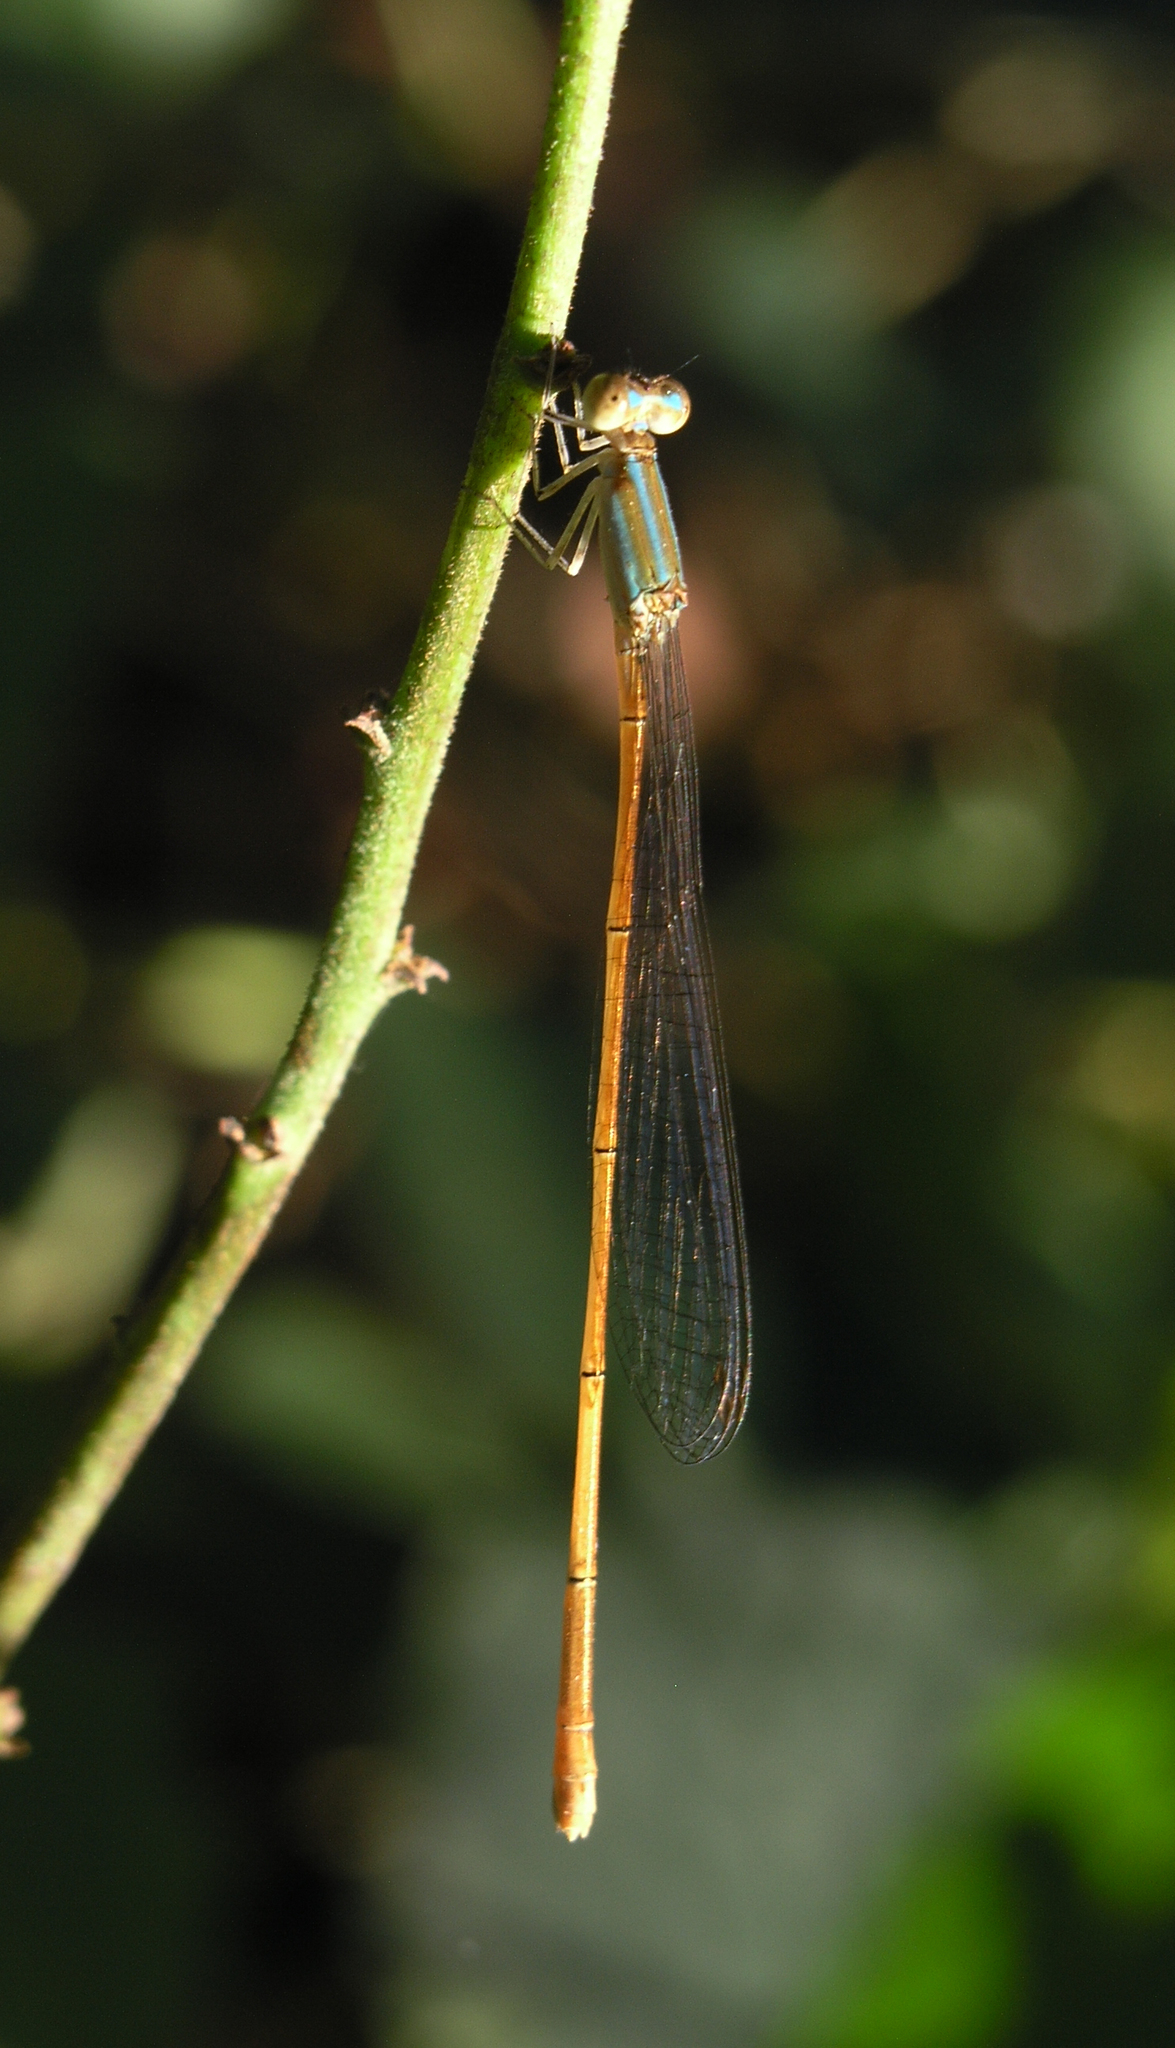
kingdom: Animalia
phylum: Arthropoda
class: Insecta
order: Odonata
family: Coenagrionidae
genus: Aciagrion
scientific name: Aciagrion pallidum
